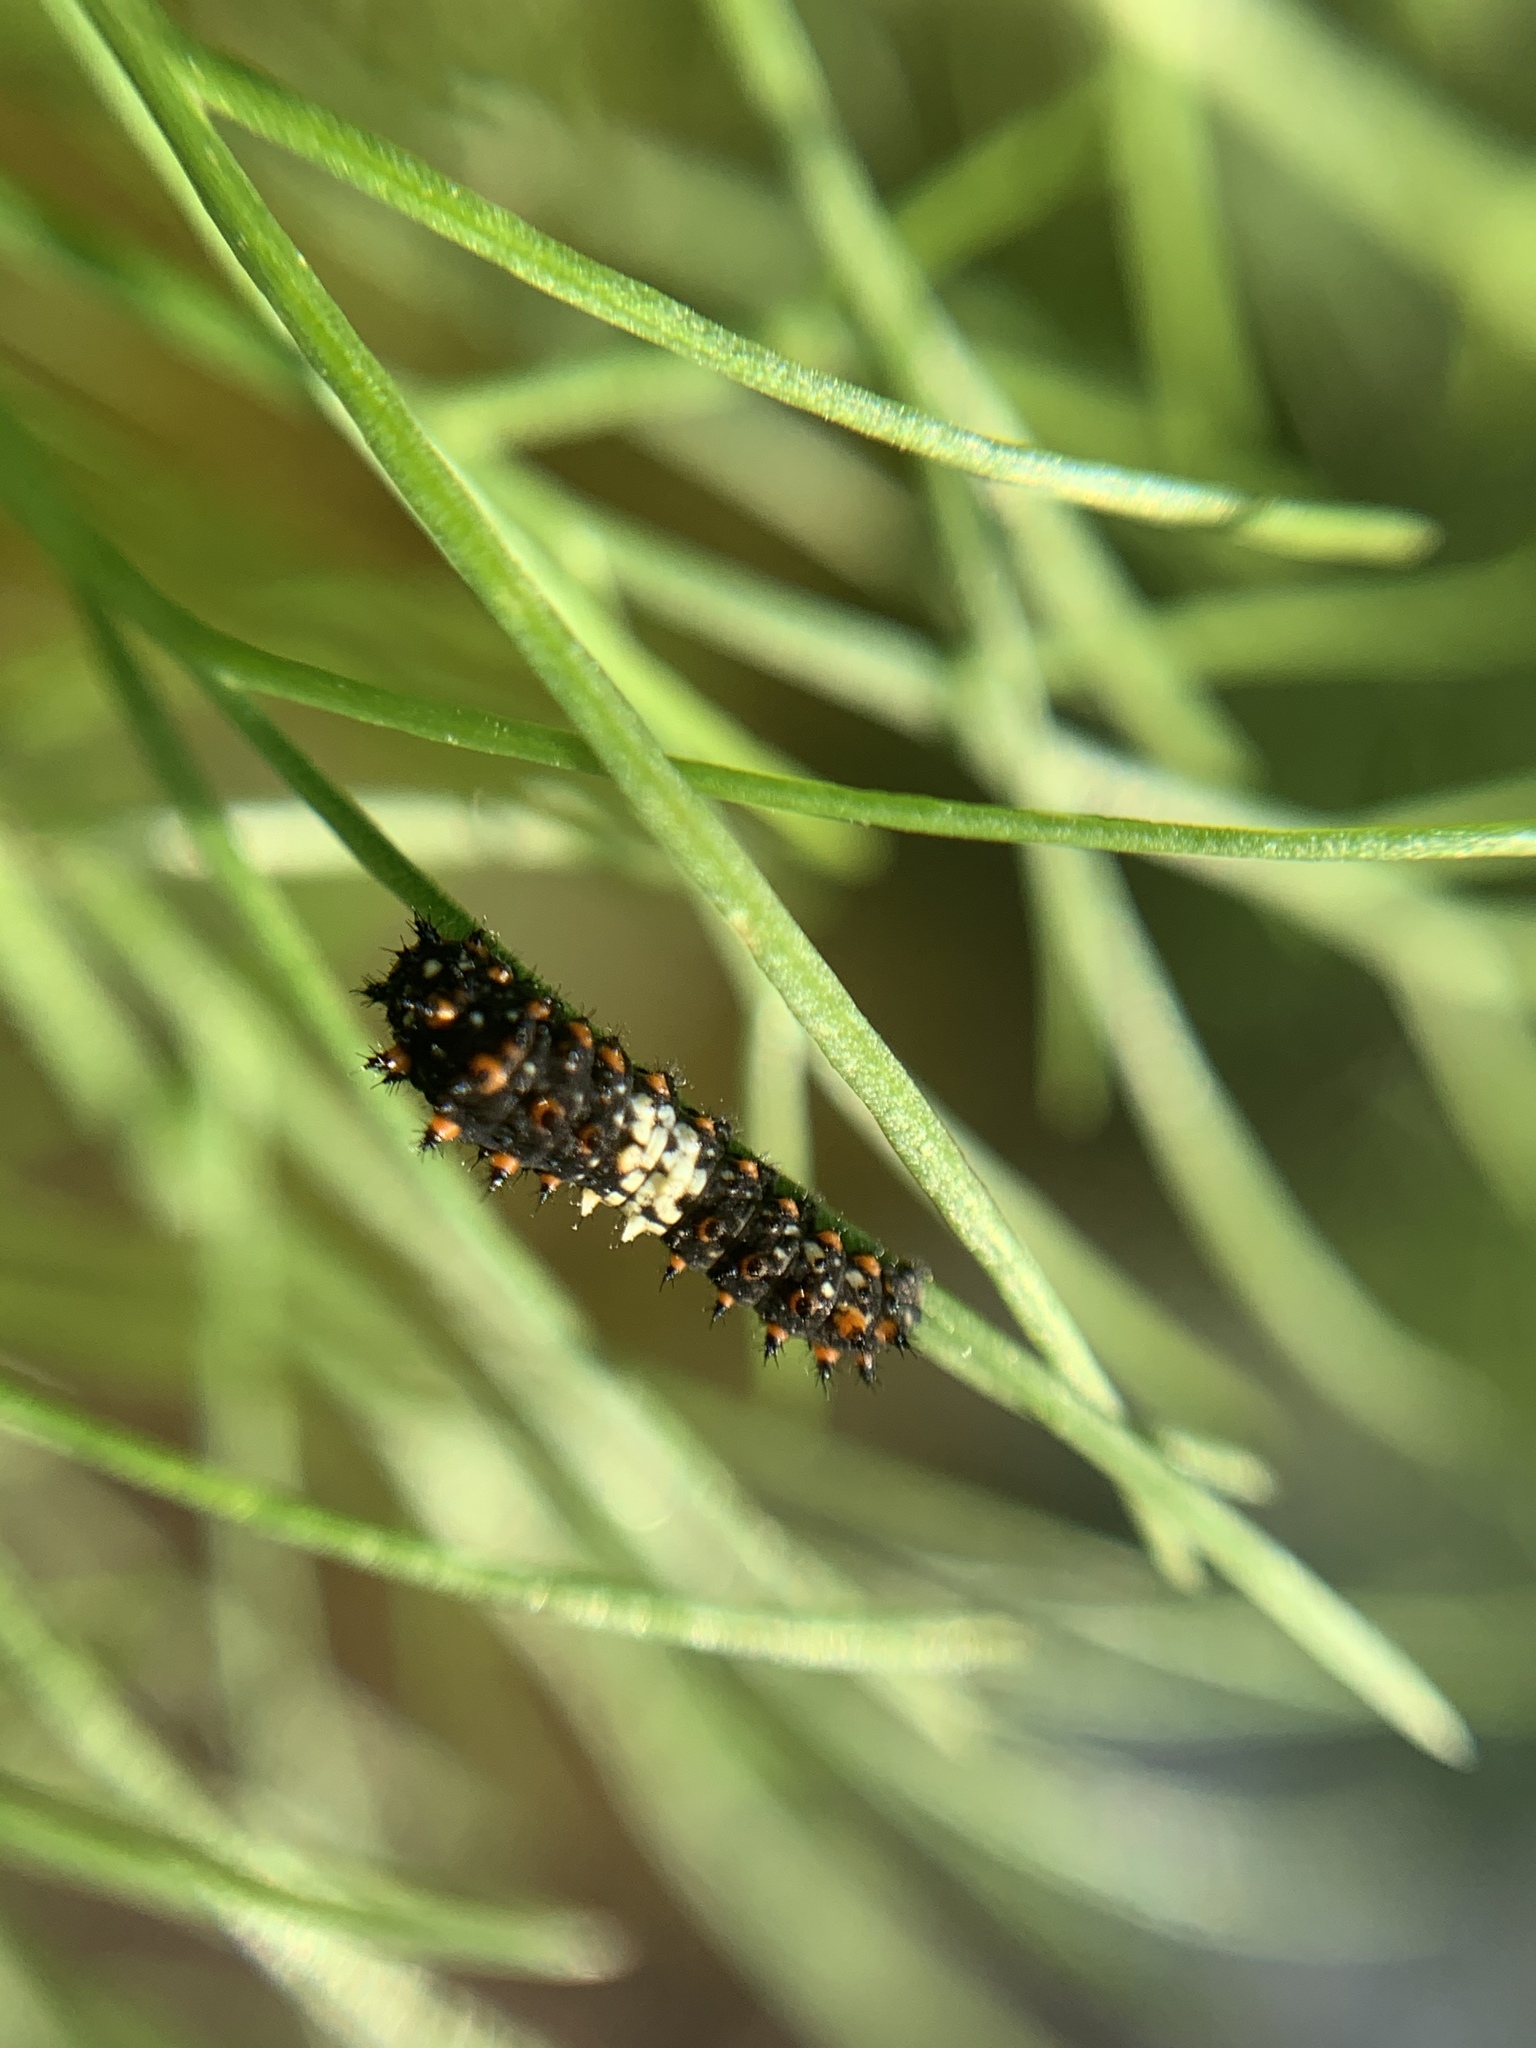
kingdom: Animalia
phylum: Arthropoda
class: Insecta
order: Lepidoptera
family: Papilionidae
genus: Papilio
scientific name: Papilio polyxenes
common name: Black swallowtail
